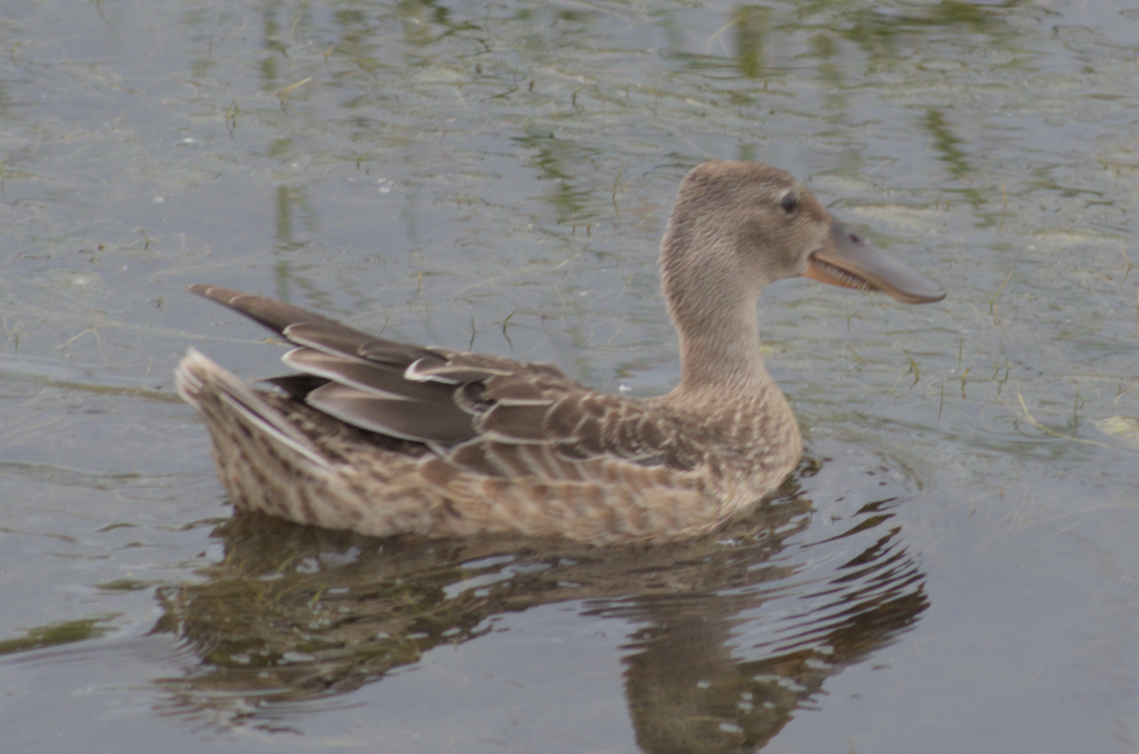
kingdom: Animalia
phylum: Chordata
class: Aves
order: Anseriformes
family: Anatidae
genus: Spatula
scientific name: Spatula clypeata
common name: Northern shoveler
